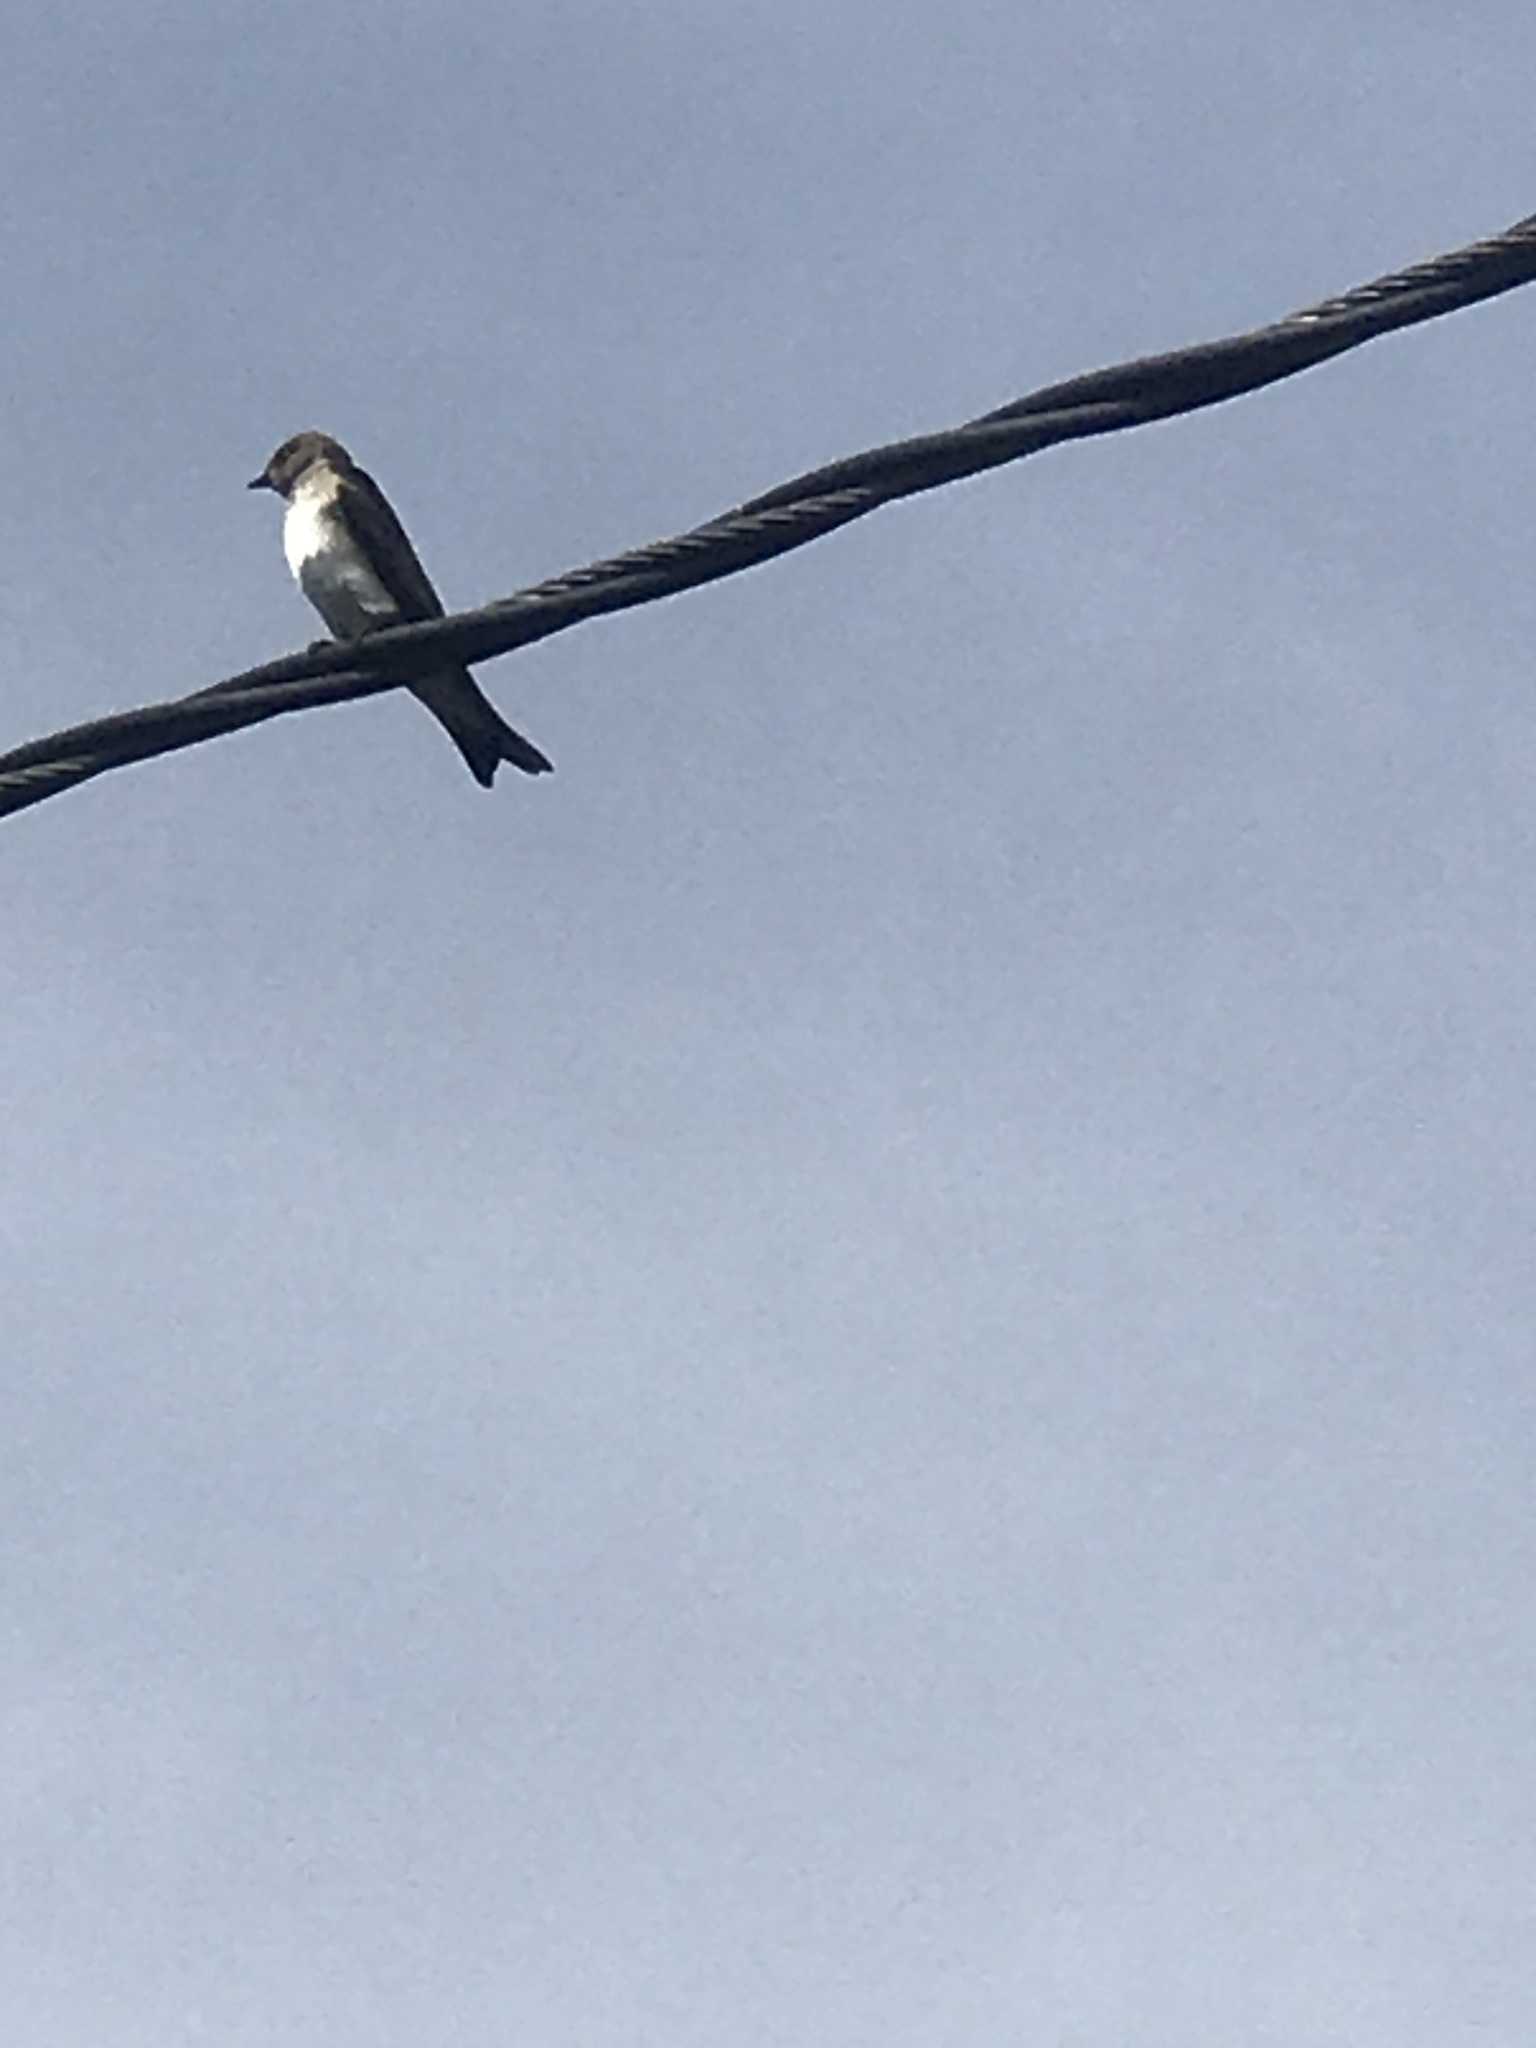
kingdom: Animalia
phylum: Chordata
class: Aves
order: Passeriformes
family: Hirundinidae
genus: Stelgidopteryx
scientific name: Stelgidopteryx serripennis
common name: Northern rough-winged swallow
